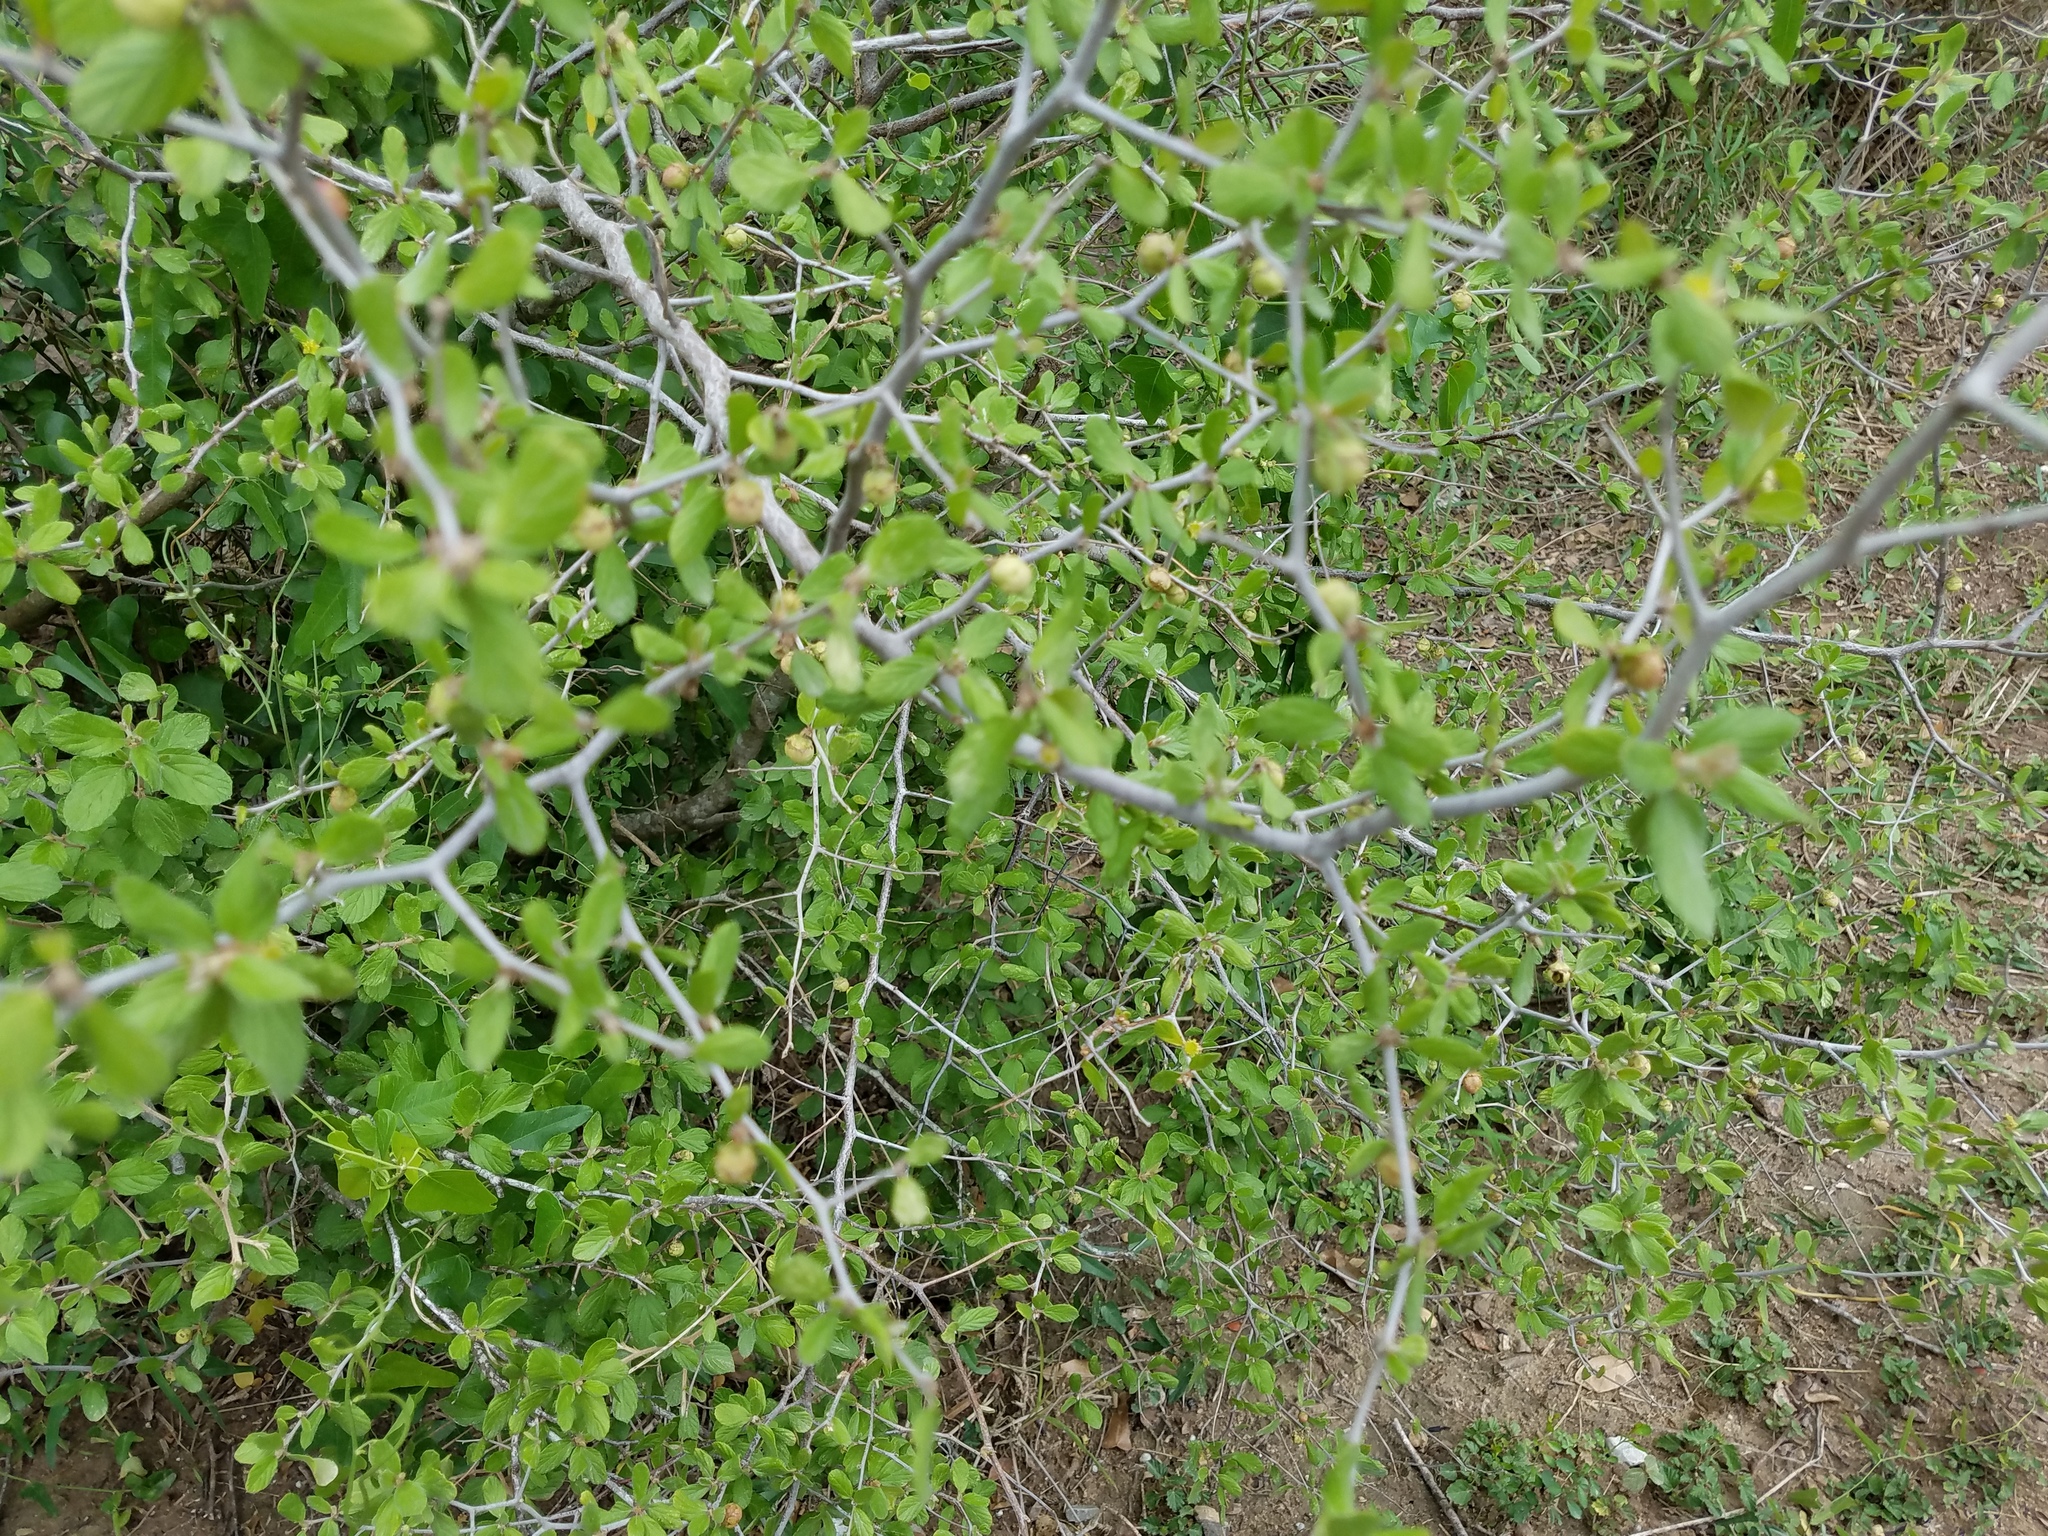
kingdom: Plantae
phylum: Tracheophyta
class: Magnoliopsida
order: Rosales
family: Rhamnaceae
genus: Colubrina
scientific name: Colubrina texensis
